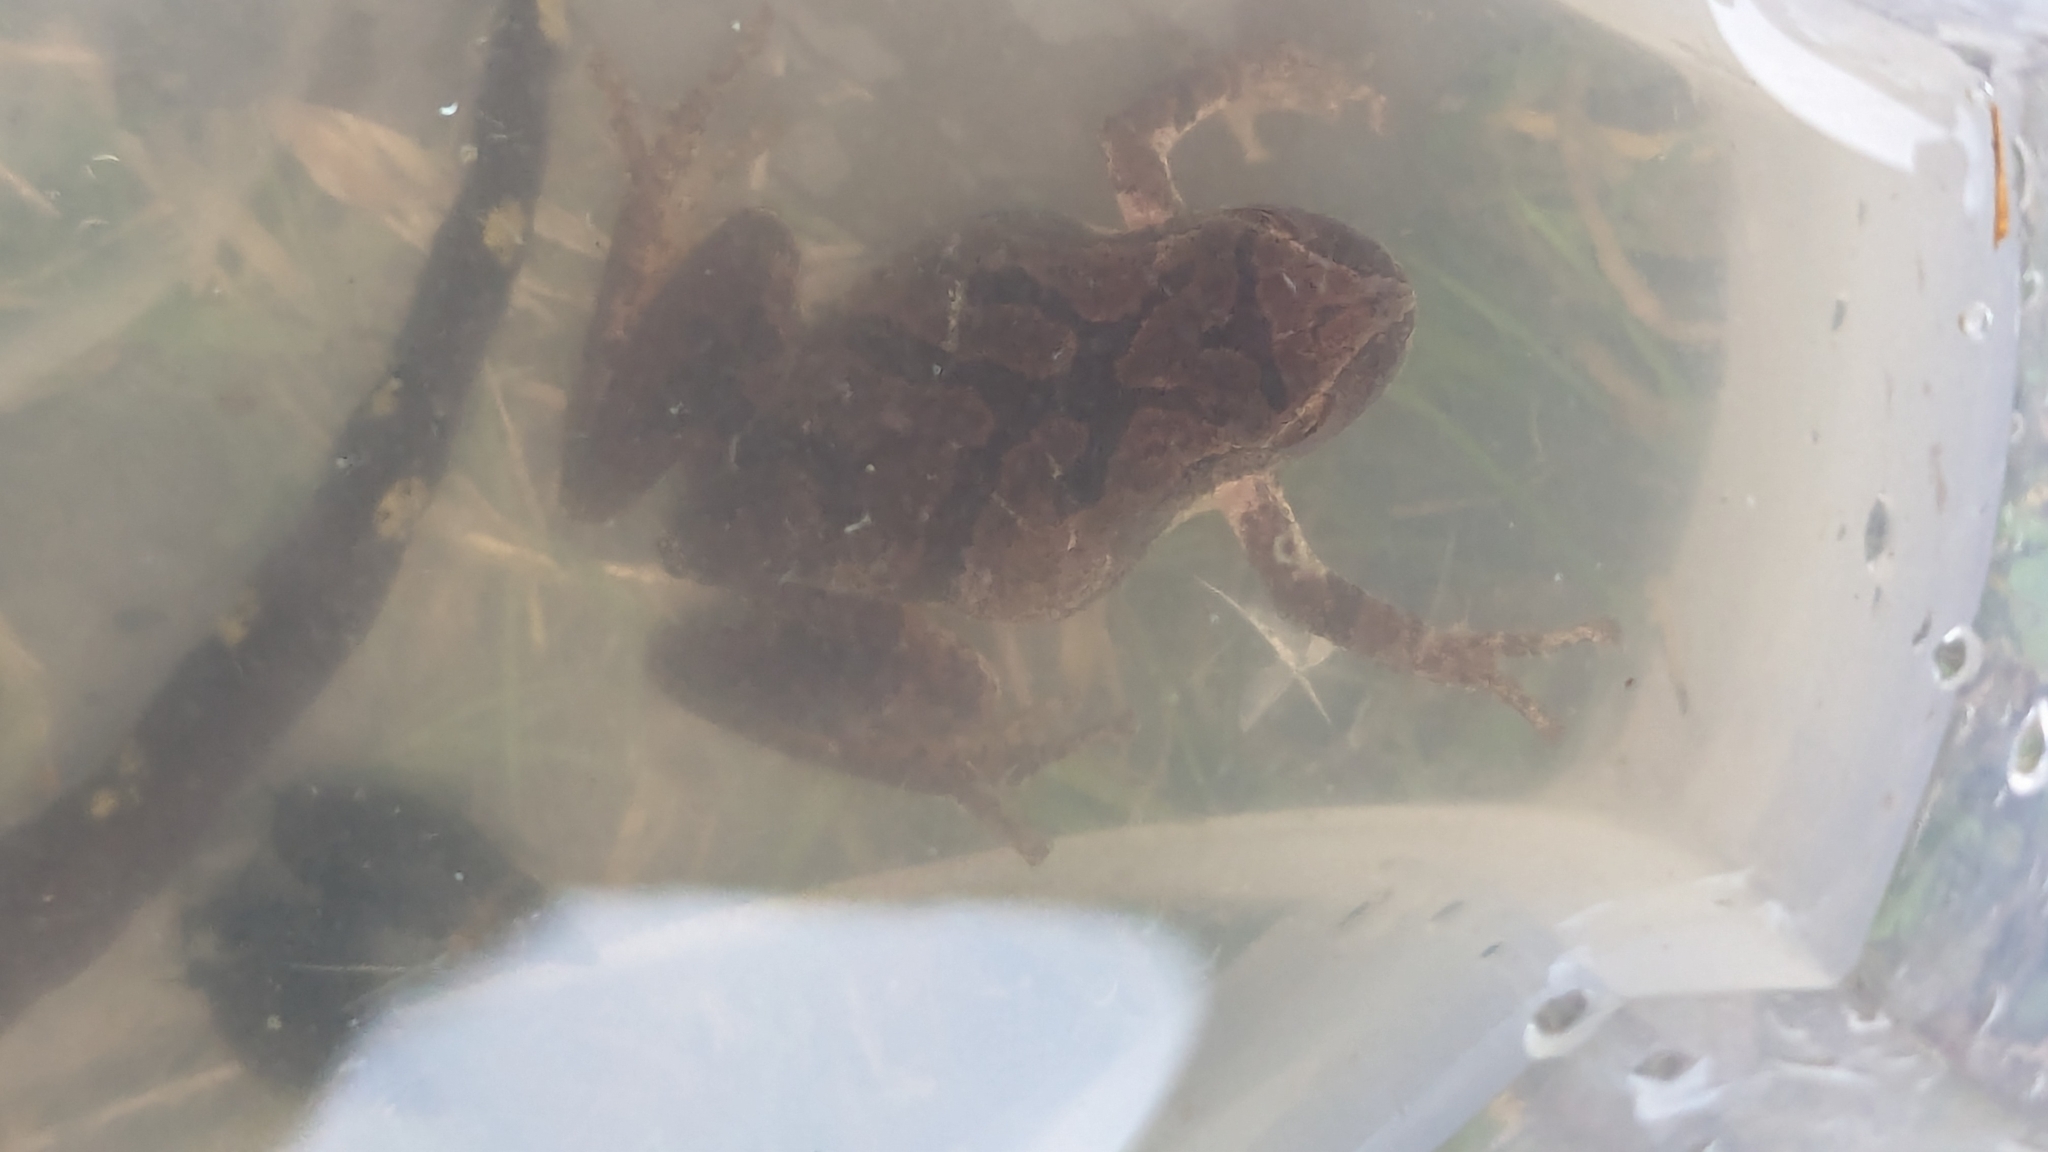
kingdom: Animalia
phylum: Chordata
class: Amphibia
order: Anura
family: Hylidae
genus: Pseudacris
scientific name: Pseudacris crucifer
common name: Spring peeper
